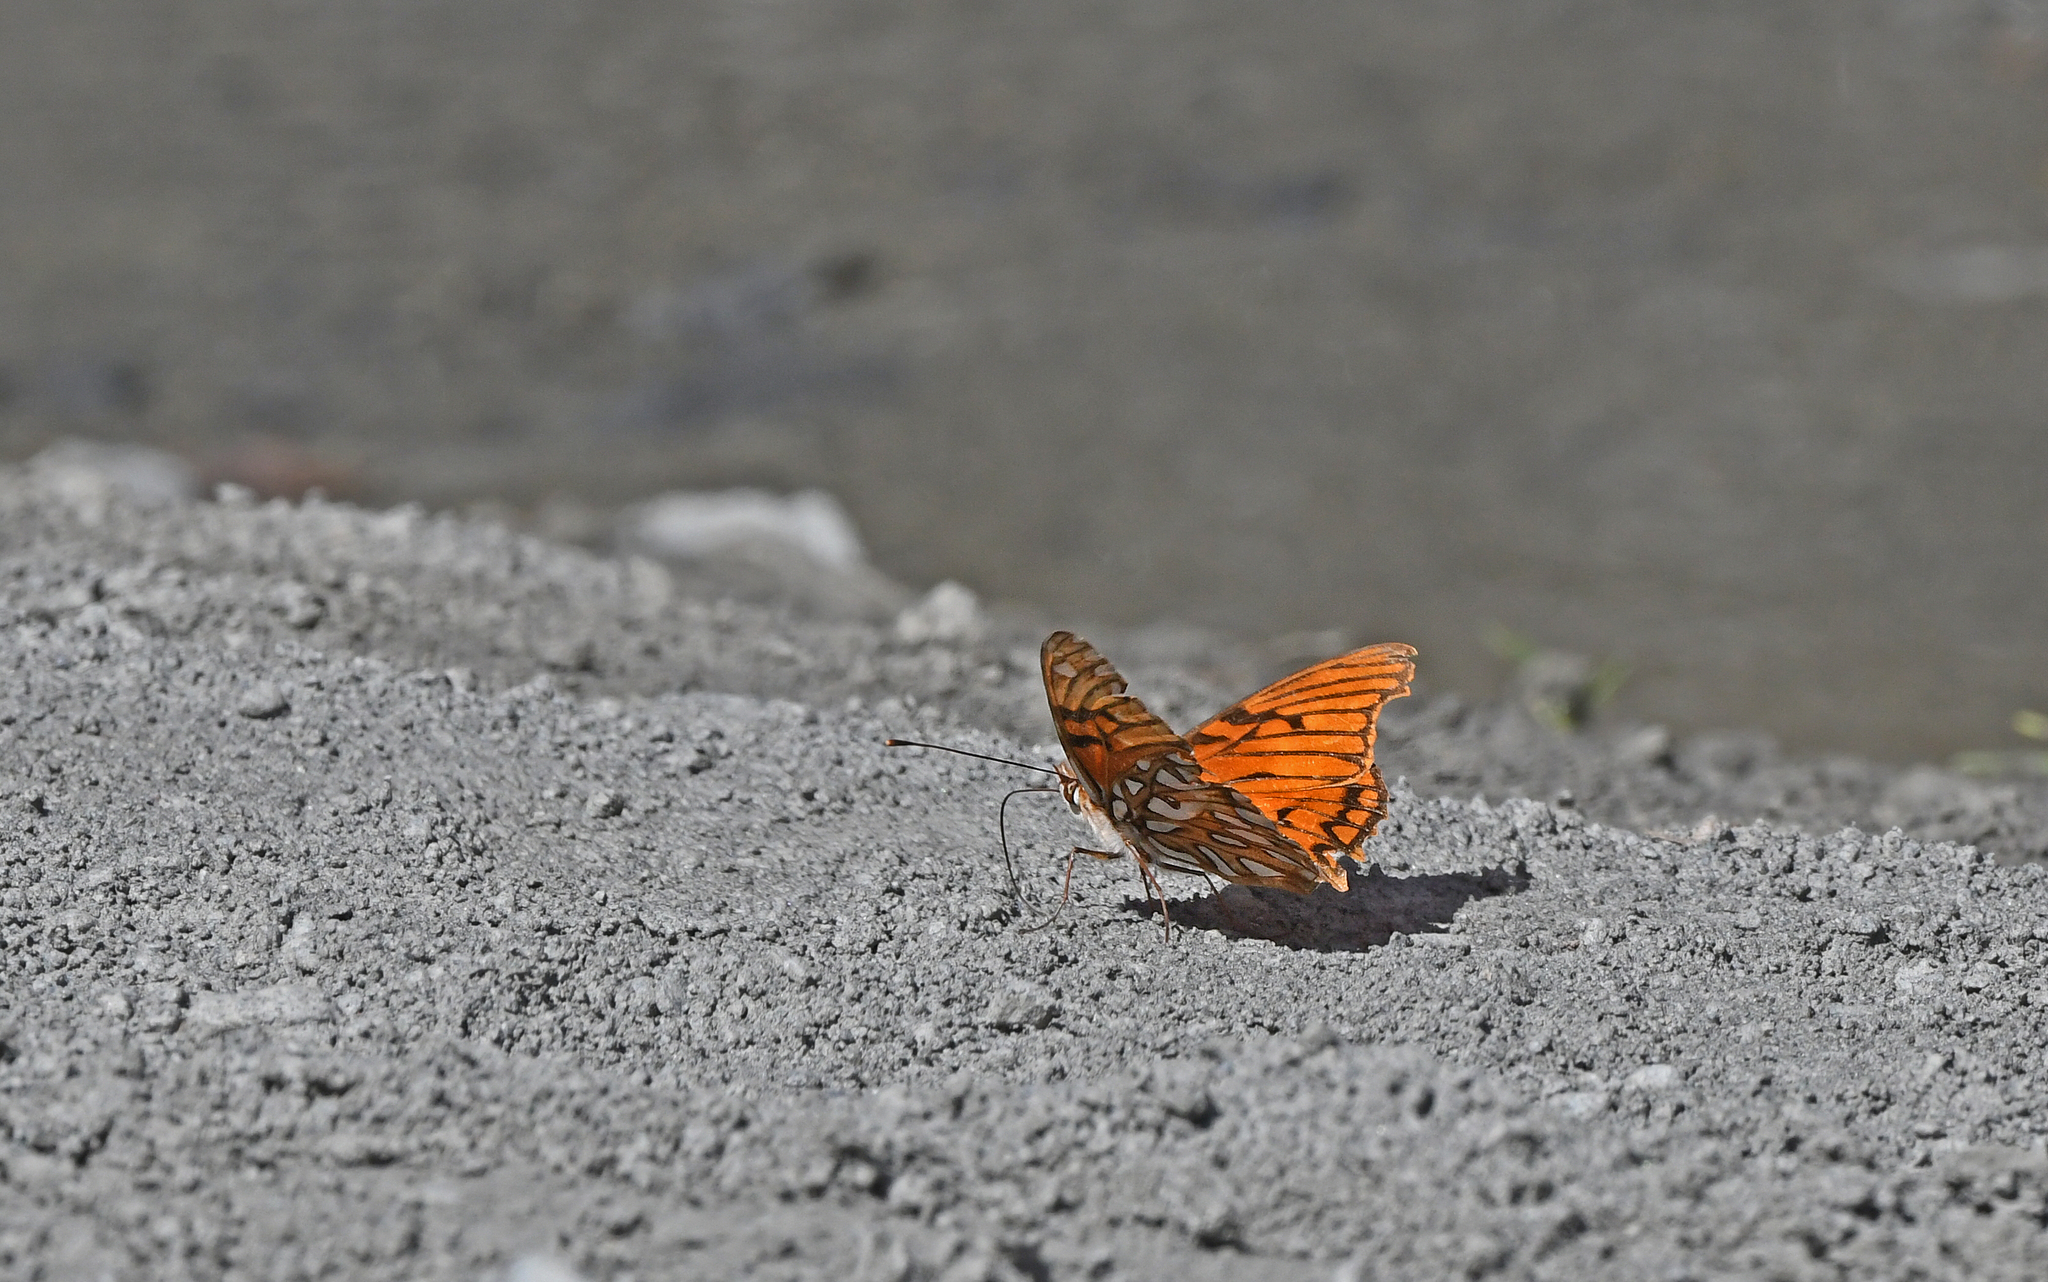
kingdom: Animalia
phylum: Arthropoda
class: Insecta
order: Lepidoptera
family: Nymphalidae
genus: Dione
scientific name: Dione glycera
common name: Andean silverspot
